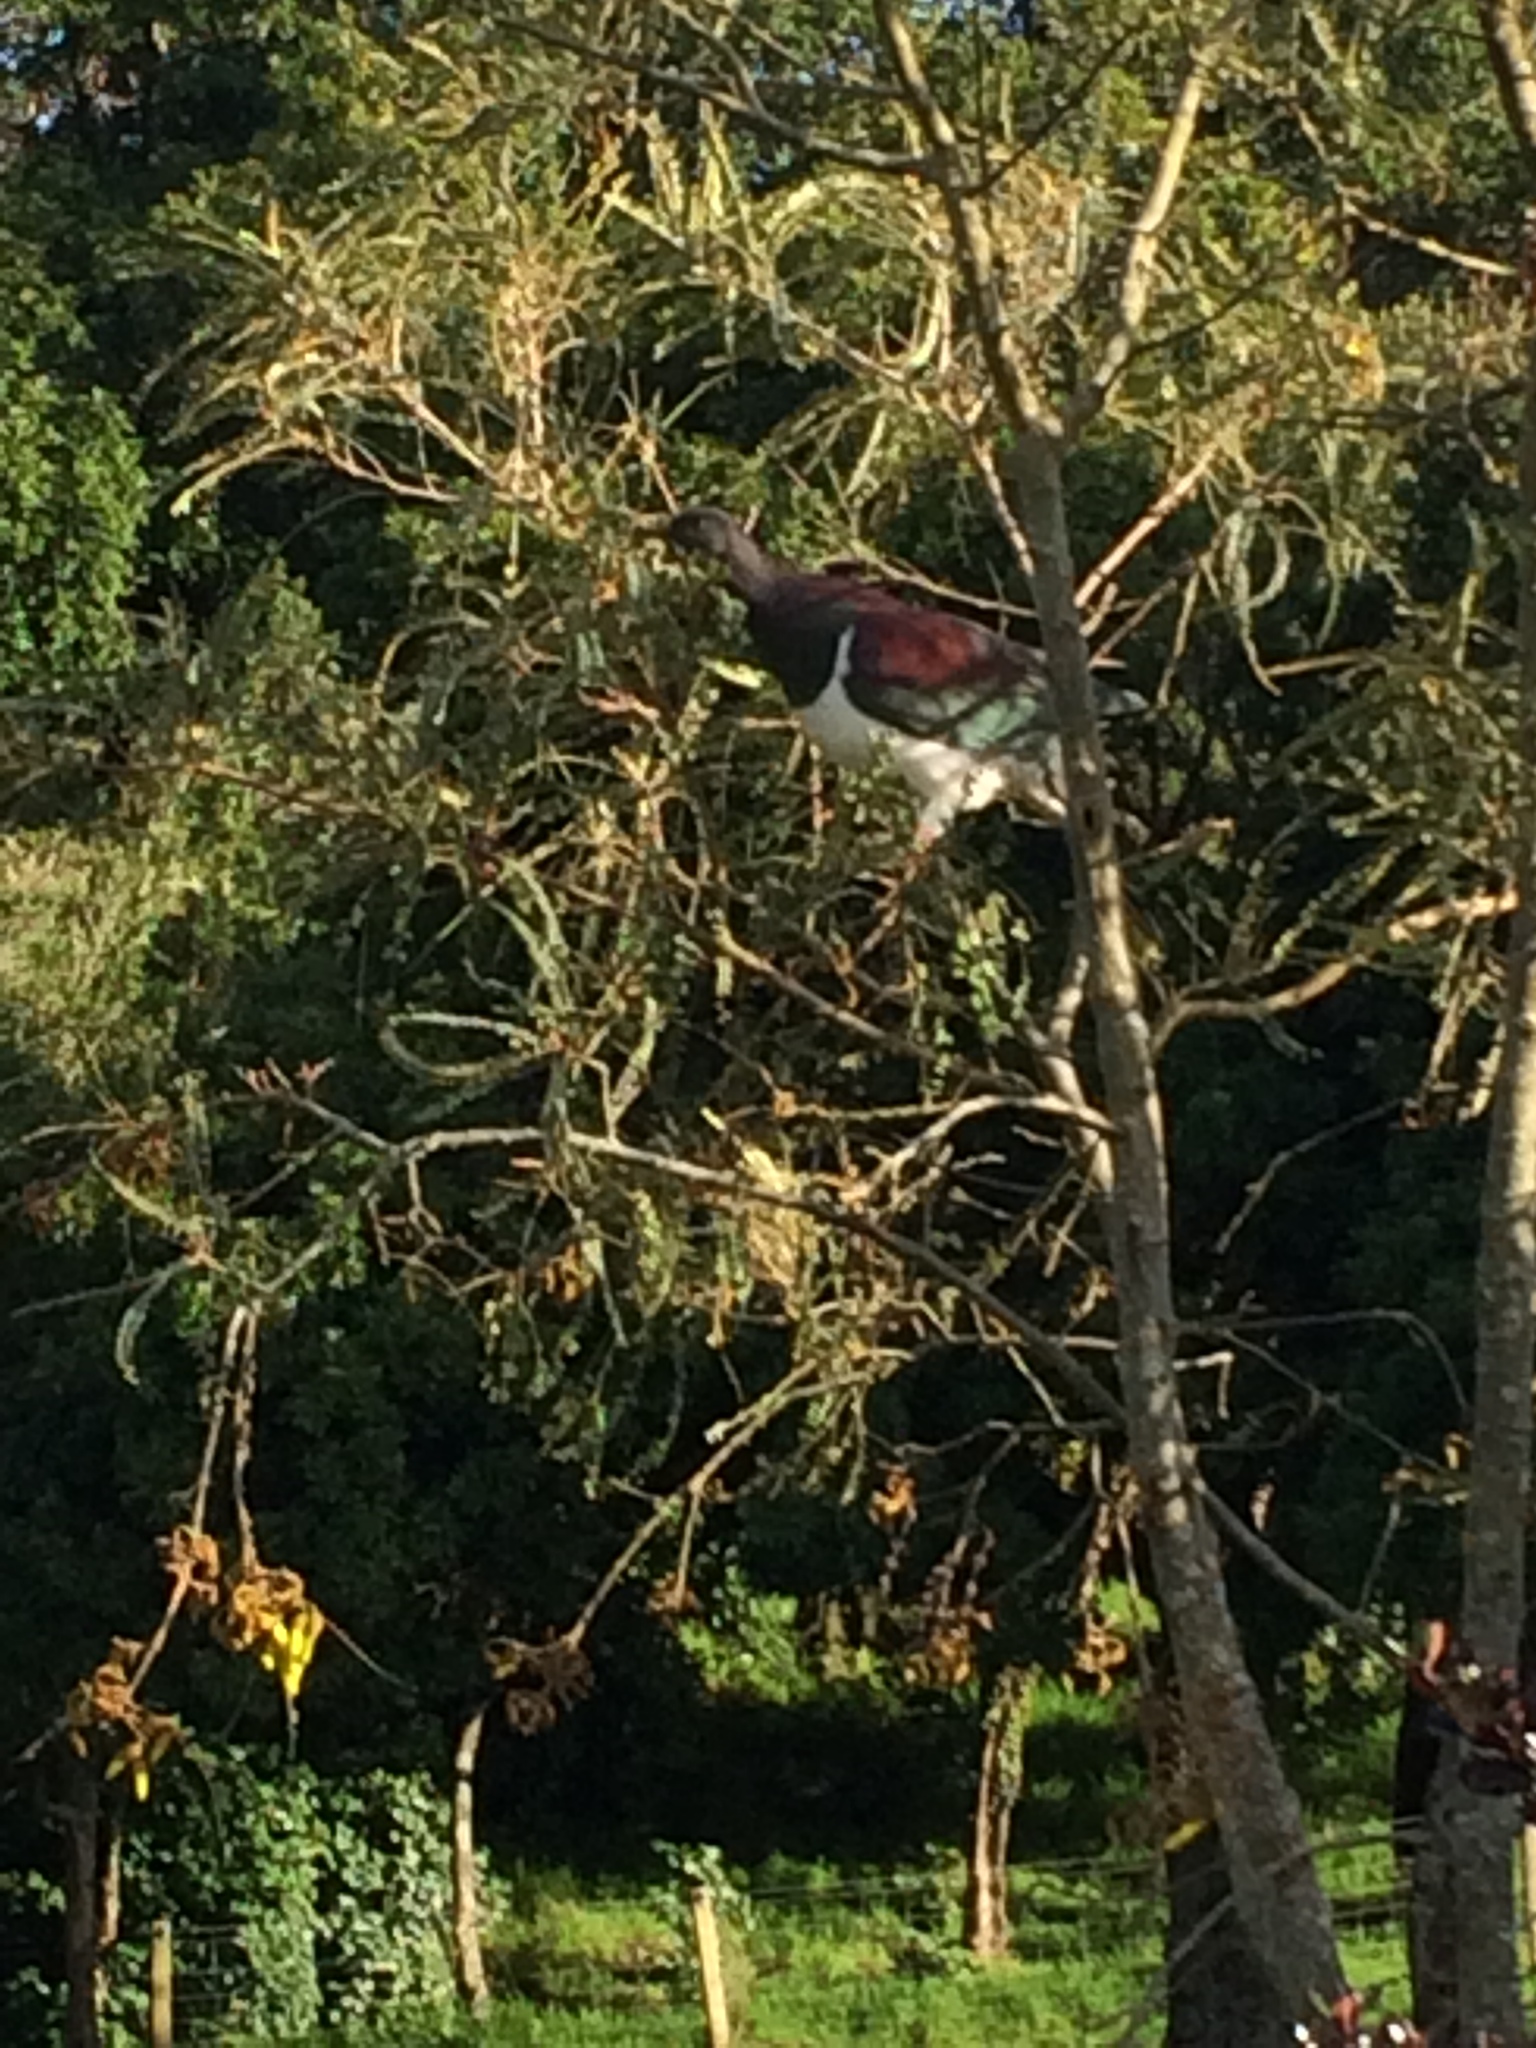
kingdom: Animalia
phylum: Chordata
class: Aves
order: Columbiformes
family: Columbidae
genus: Hemiphaga
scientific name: Hemiphaga novaeseelandiae
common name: New zealand pigeon
